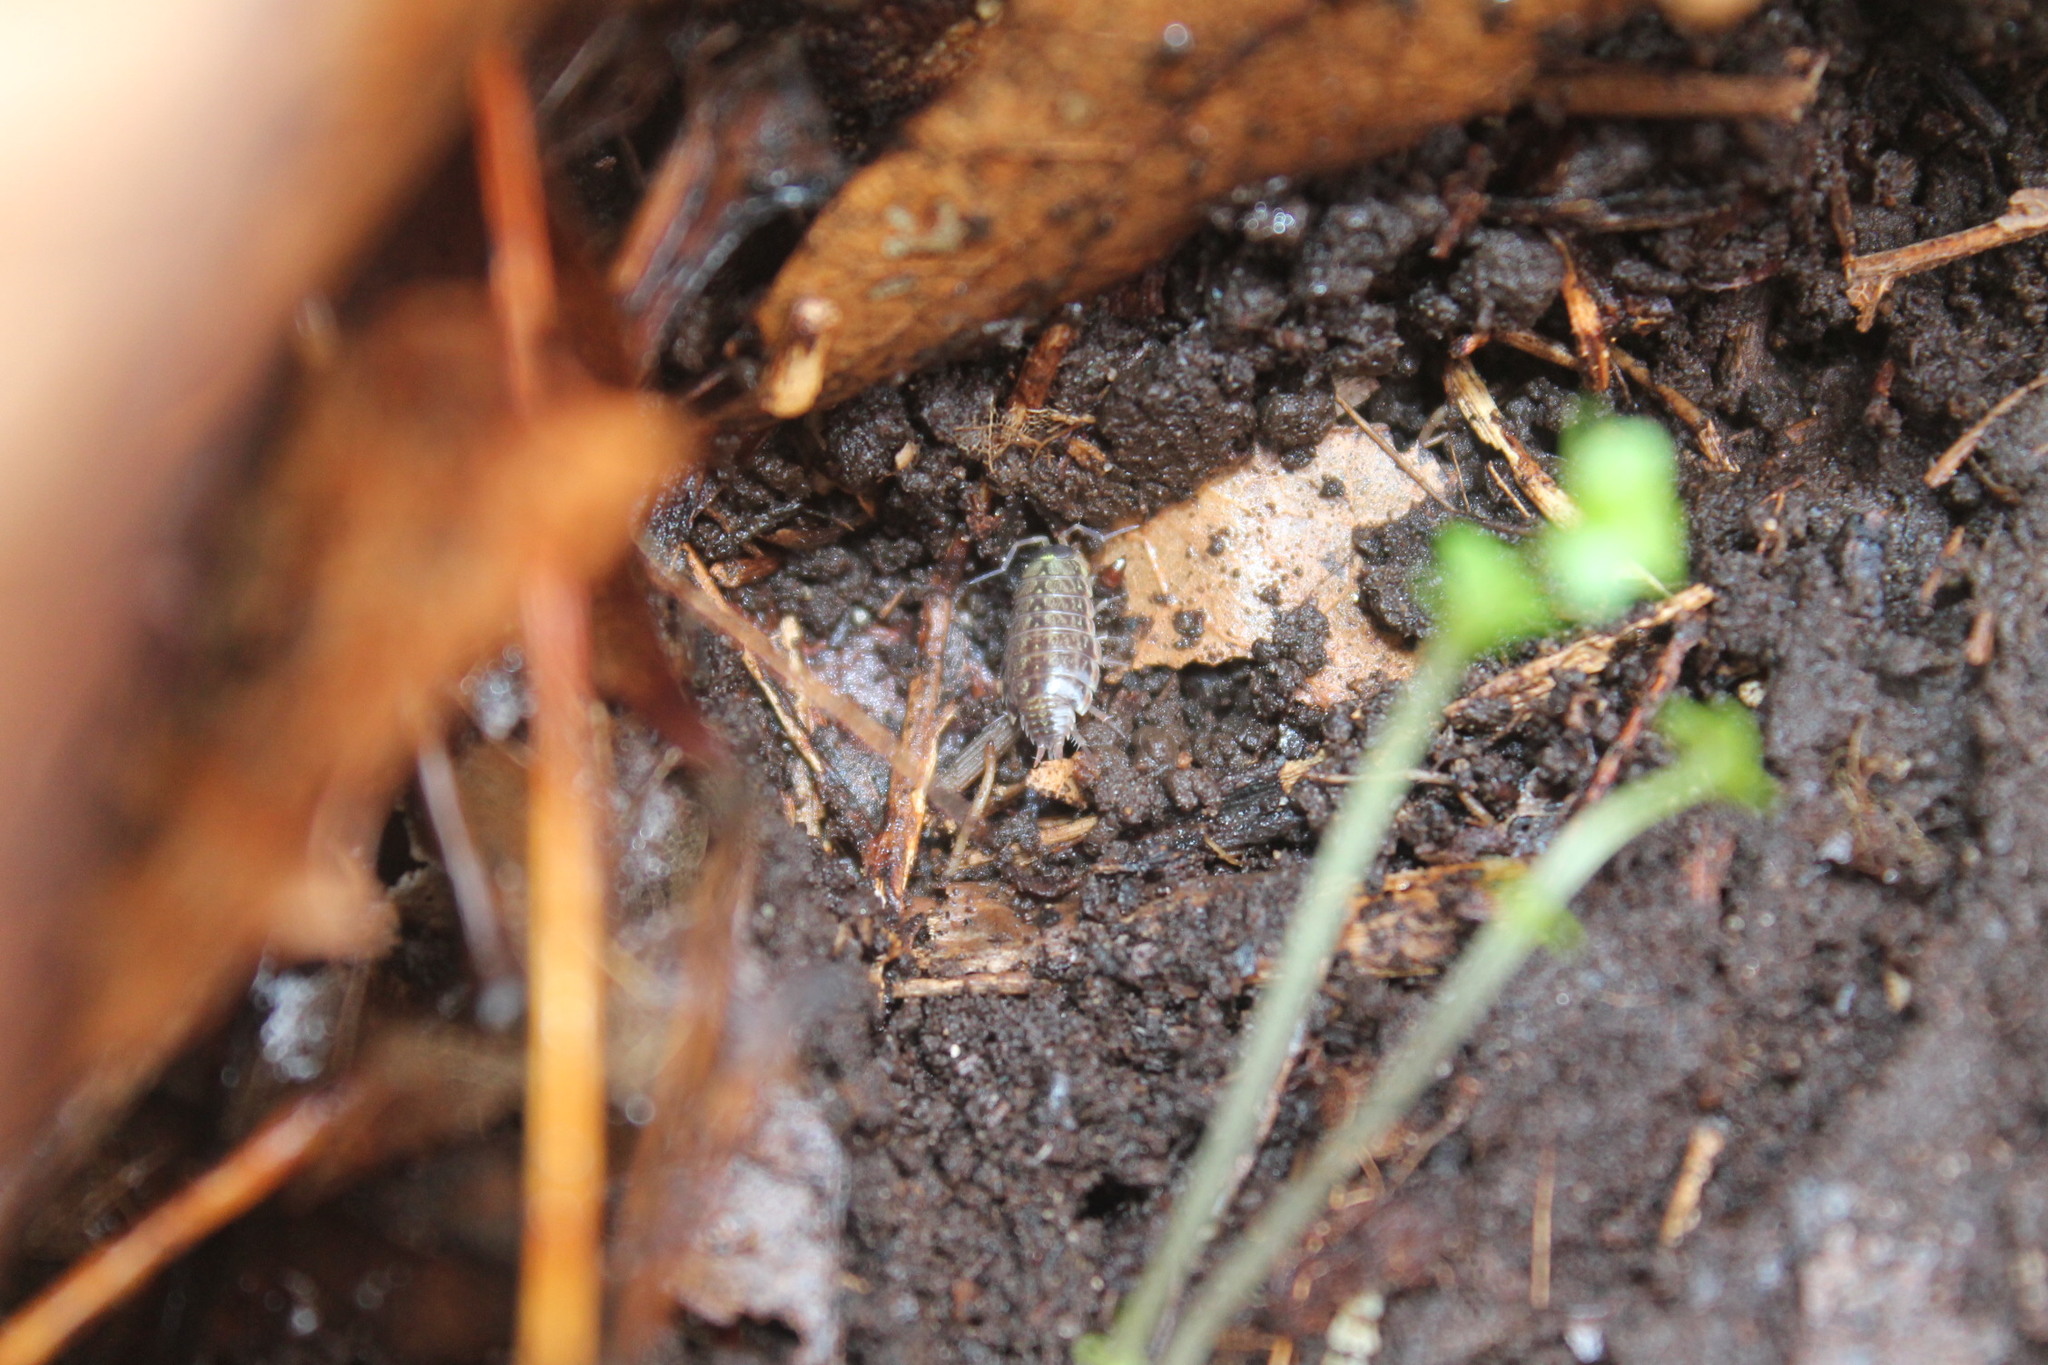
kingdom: Animalia
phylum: Arthropoda
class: Malacostraca
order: Isopoda
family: Philosciidae
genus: Philoscia
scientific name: Philoscia muscorum
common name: Common striped woodlouse
